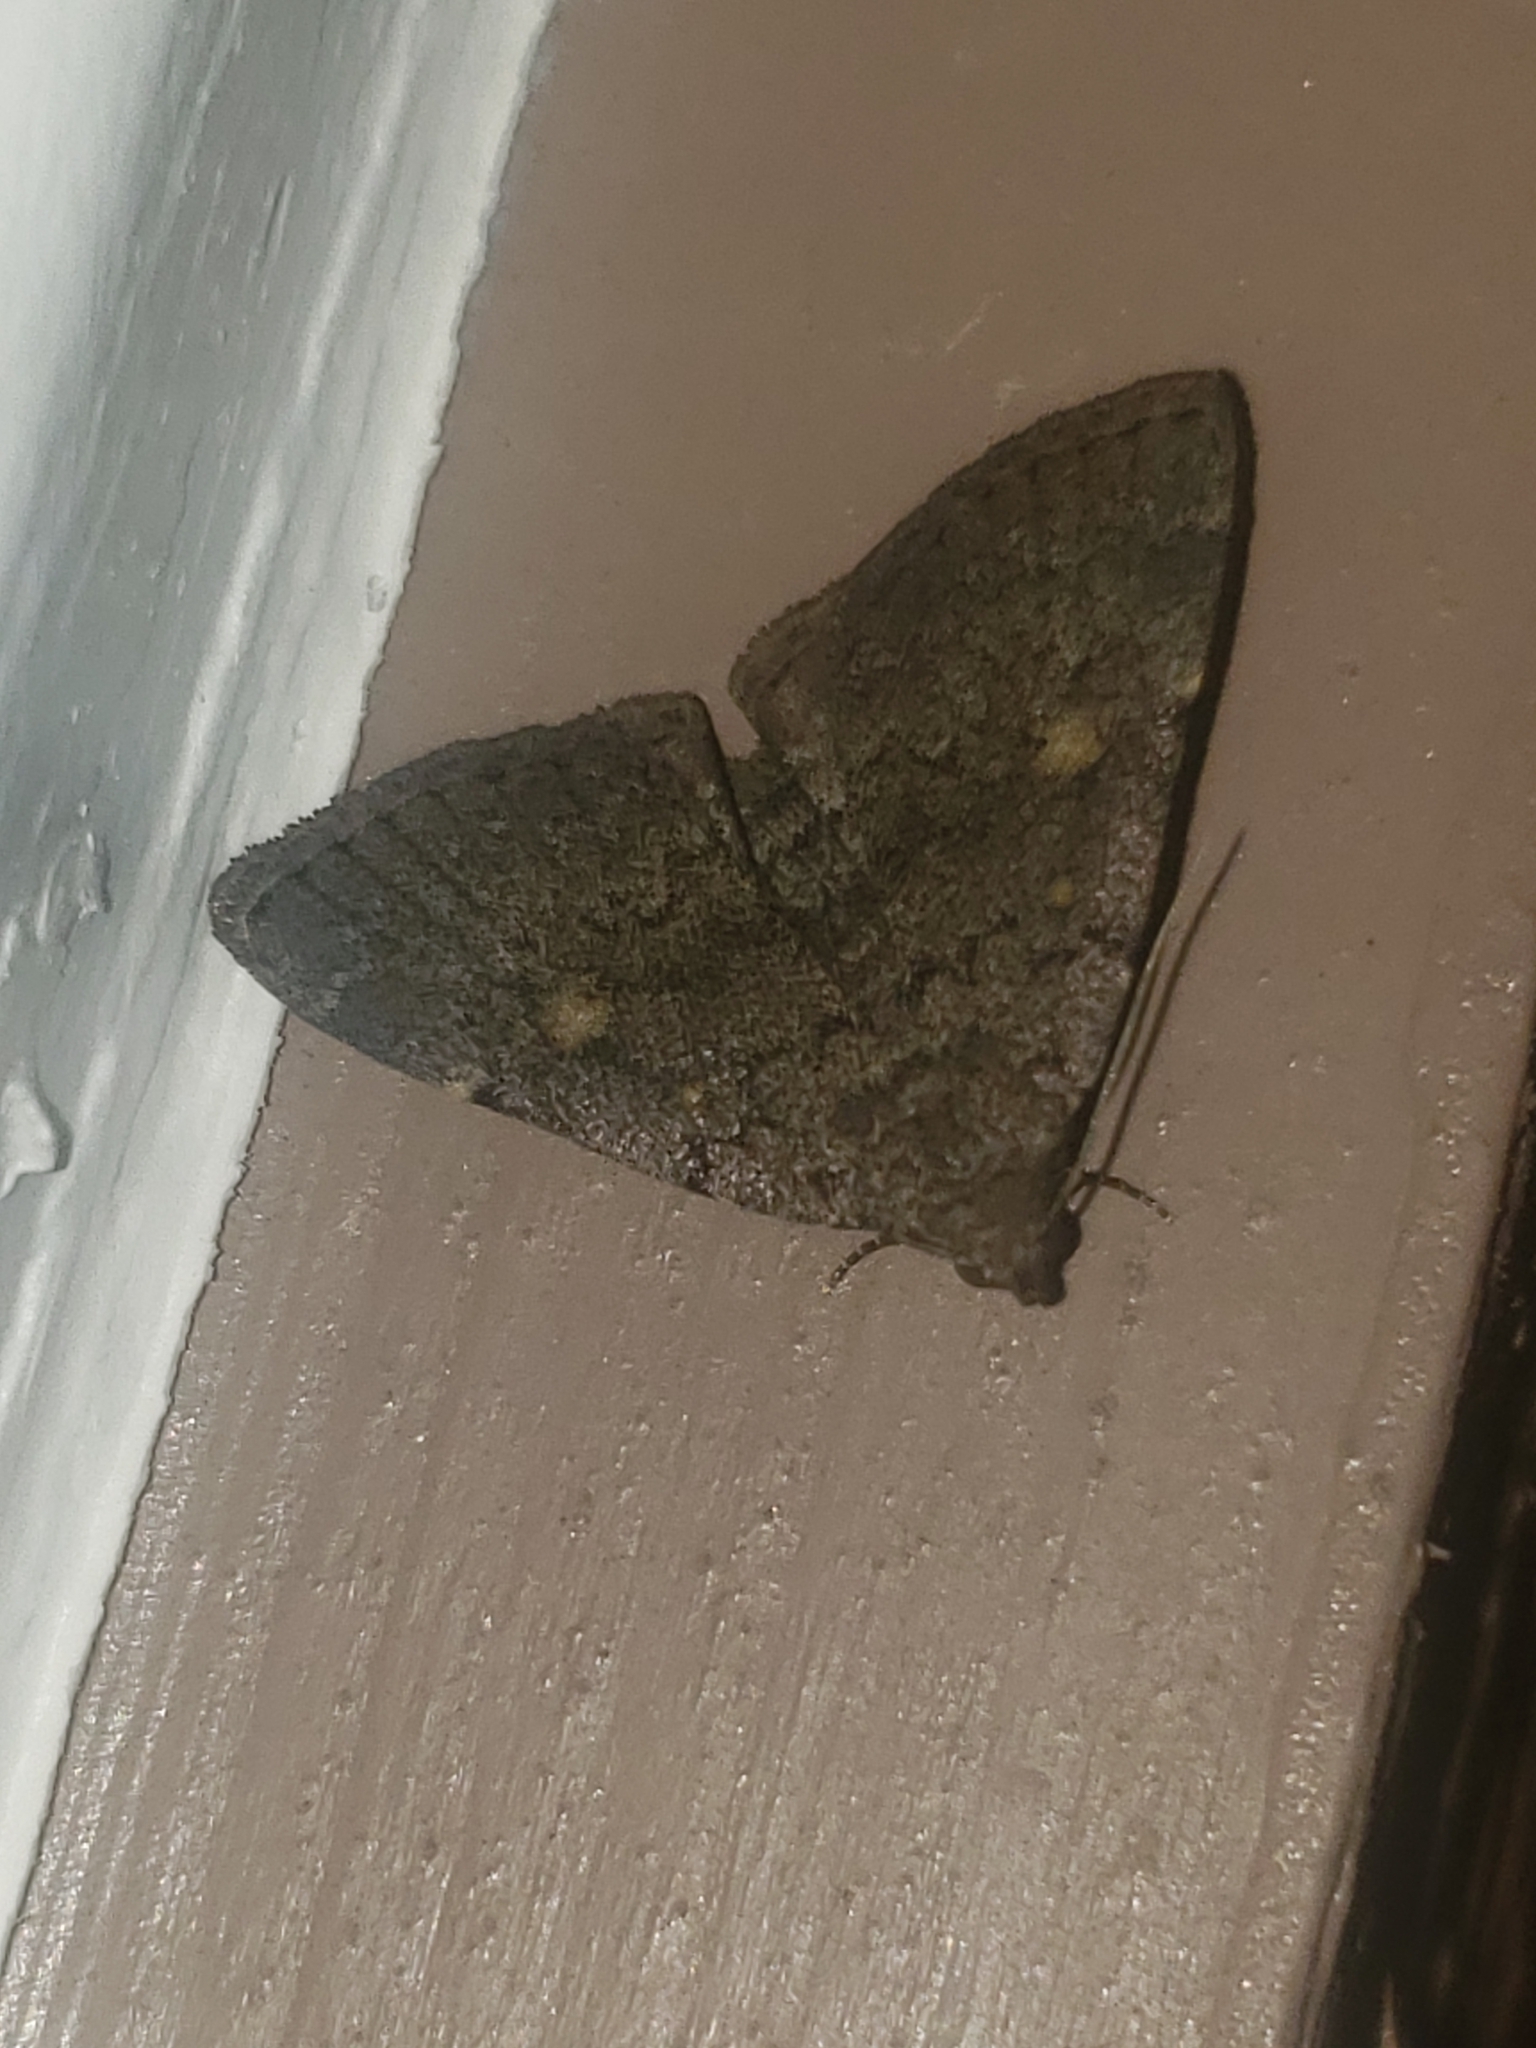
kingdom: Animalia
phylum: Arthropoda
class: Insecta
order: Lepidoptera
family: Erebidae
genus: Idia
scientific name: Idia aemula
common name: Common idia moth
